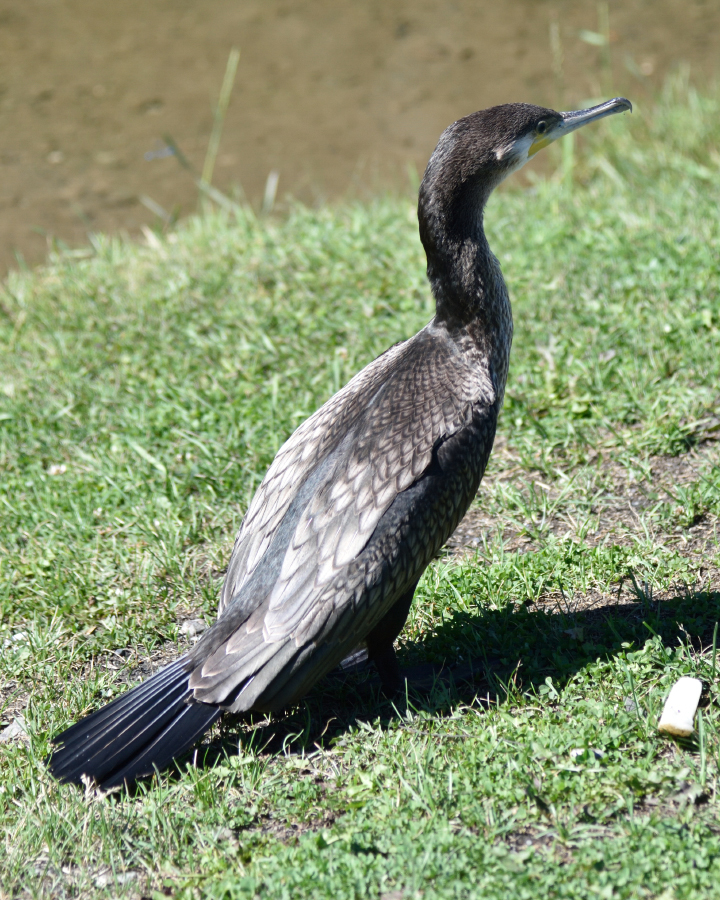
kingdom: Animalia
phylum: Chordata
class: Aves
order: Suliformes
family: Phalacrocoracidae
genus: Phalacrocorax
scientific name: Phalacrocorax carbo
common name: Great cormorant
